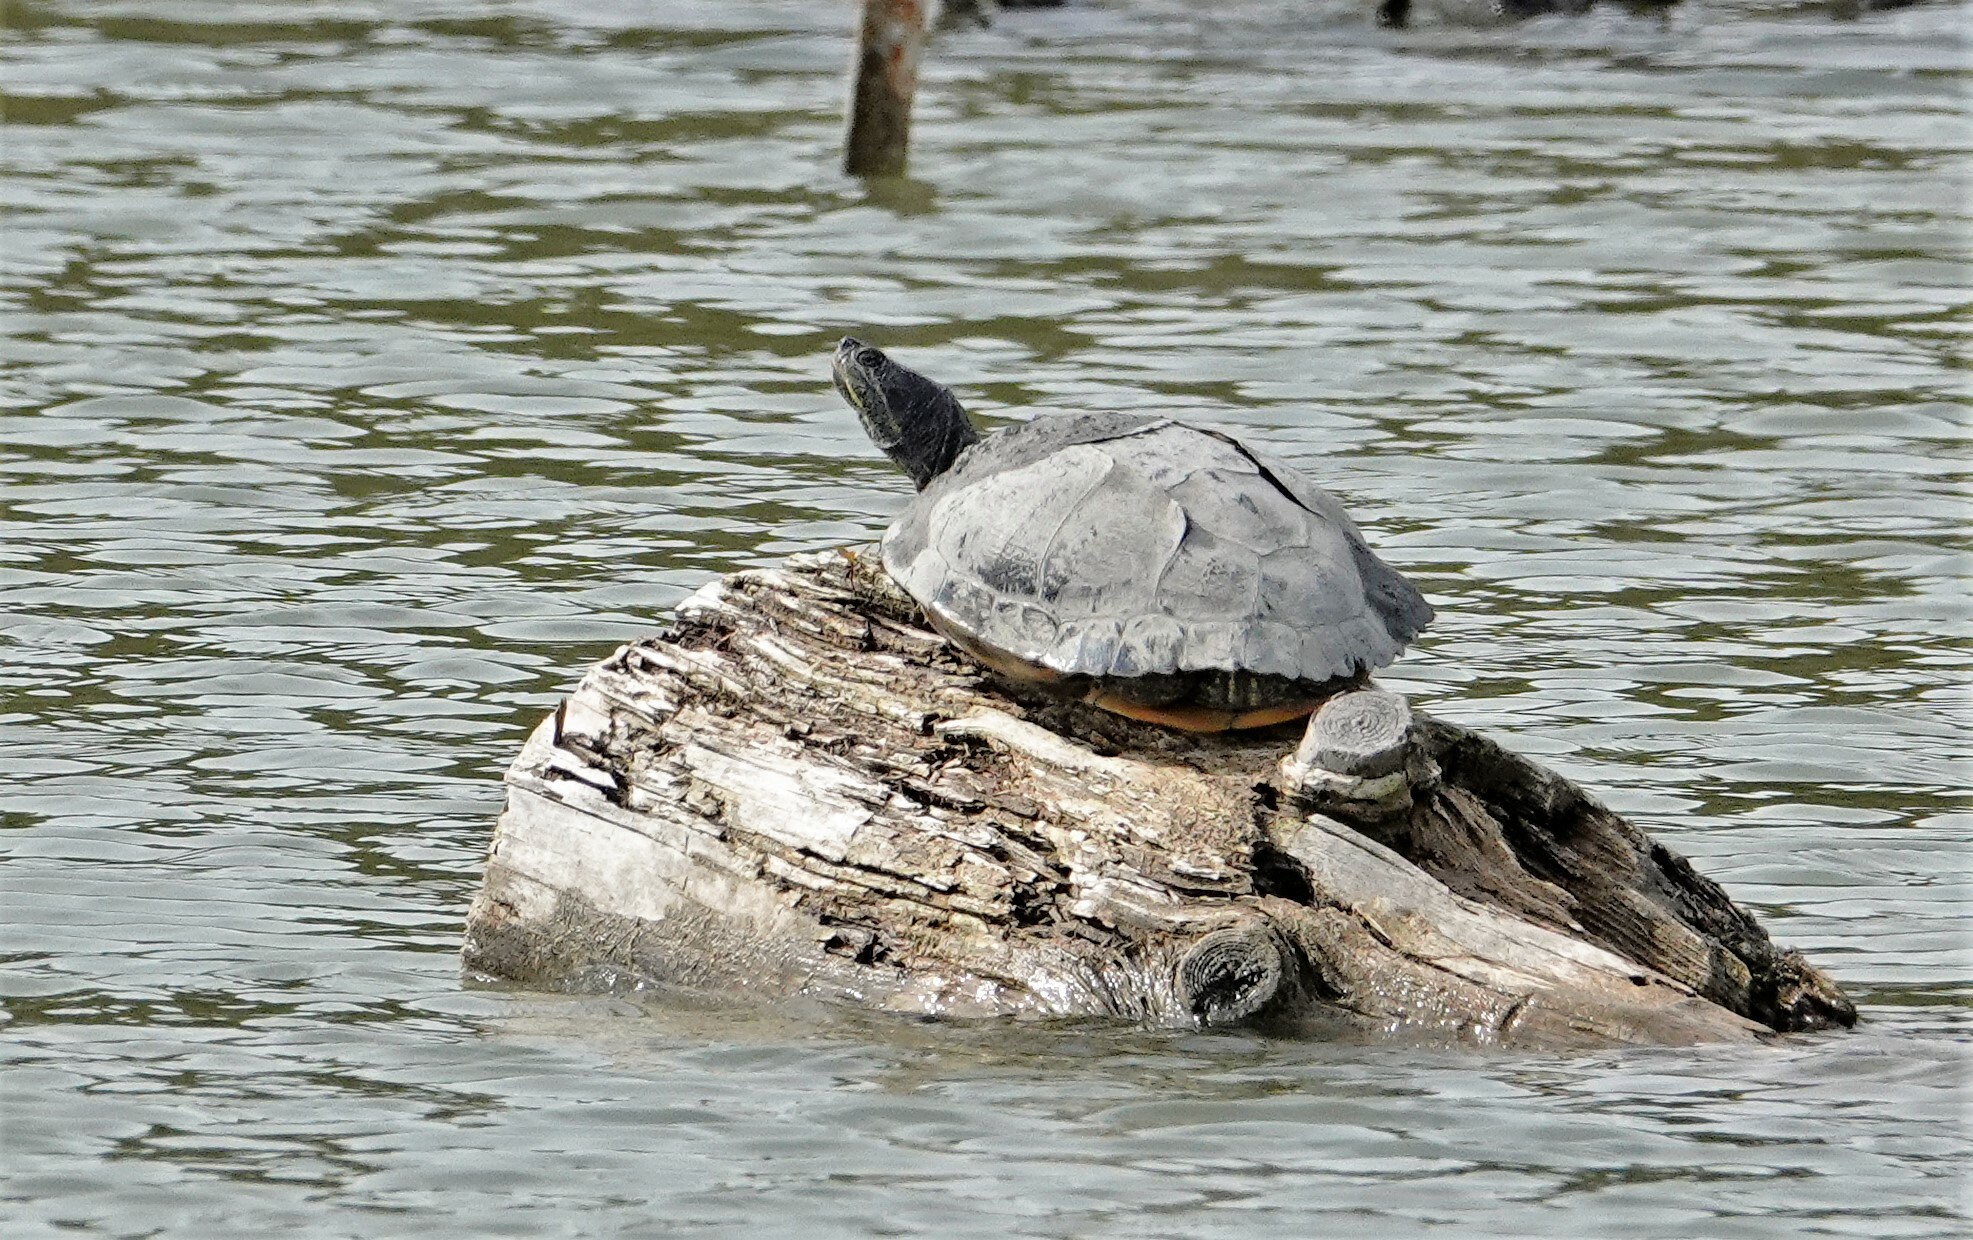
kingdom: Animalia
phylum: Chordata
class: Testudines
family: Emydidae
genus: Trachemys
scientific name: Trachemys scripta
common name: Slider
